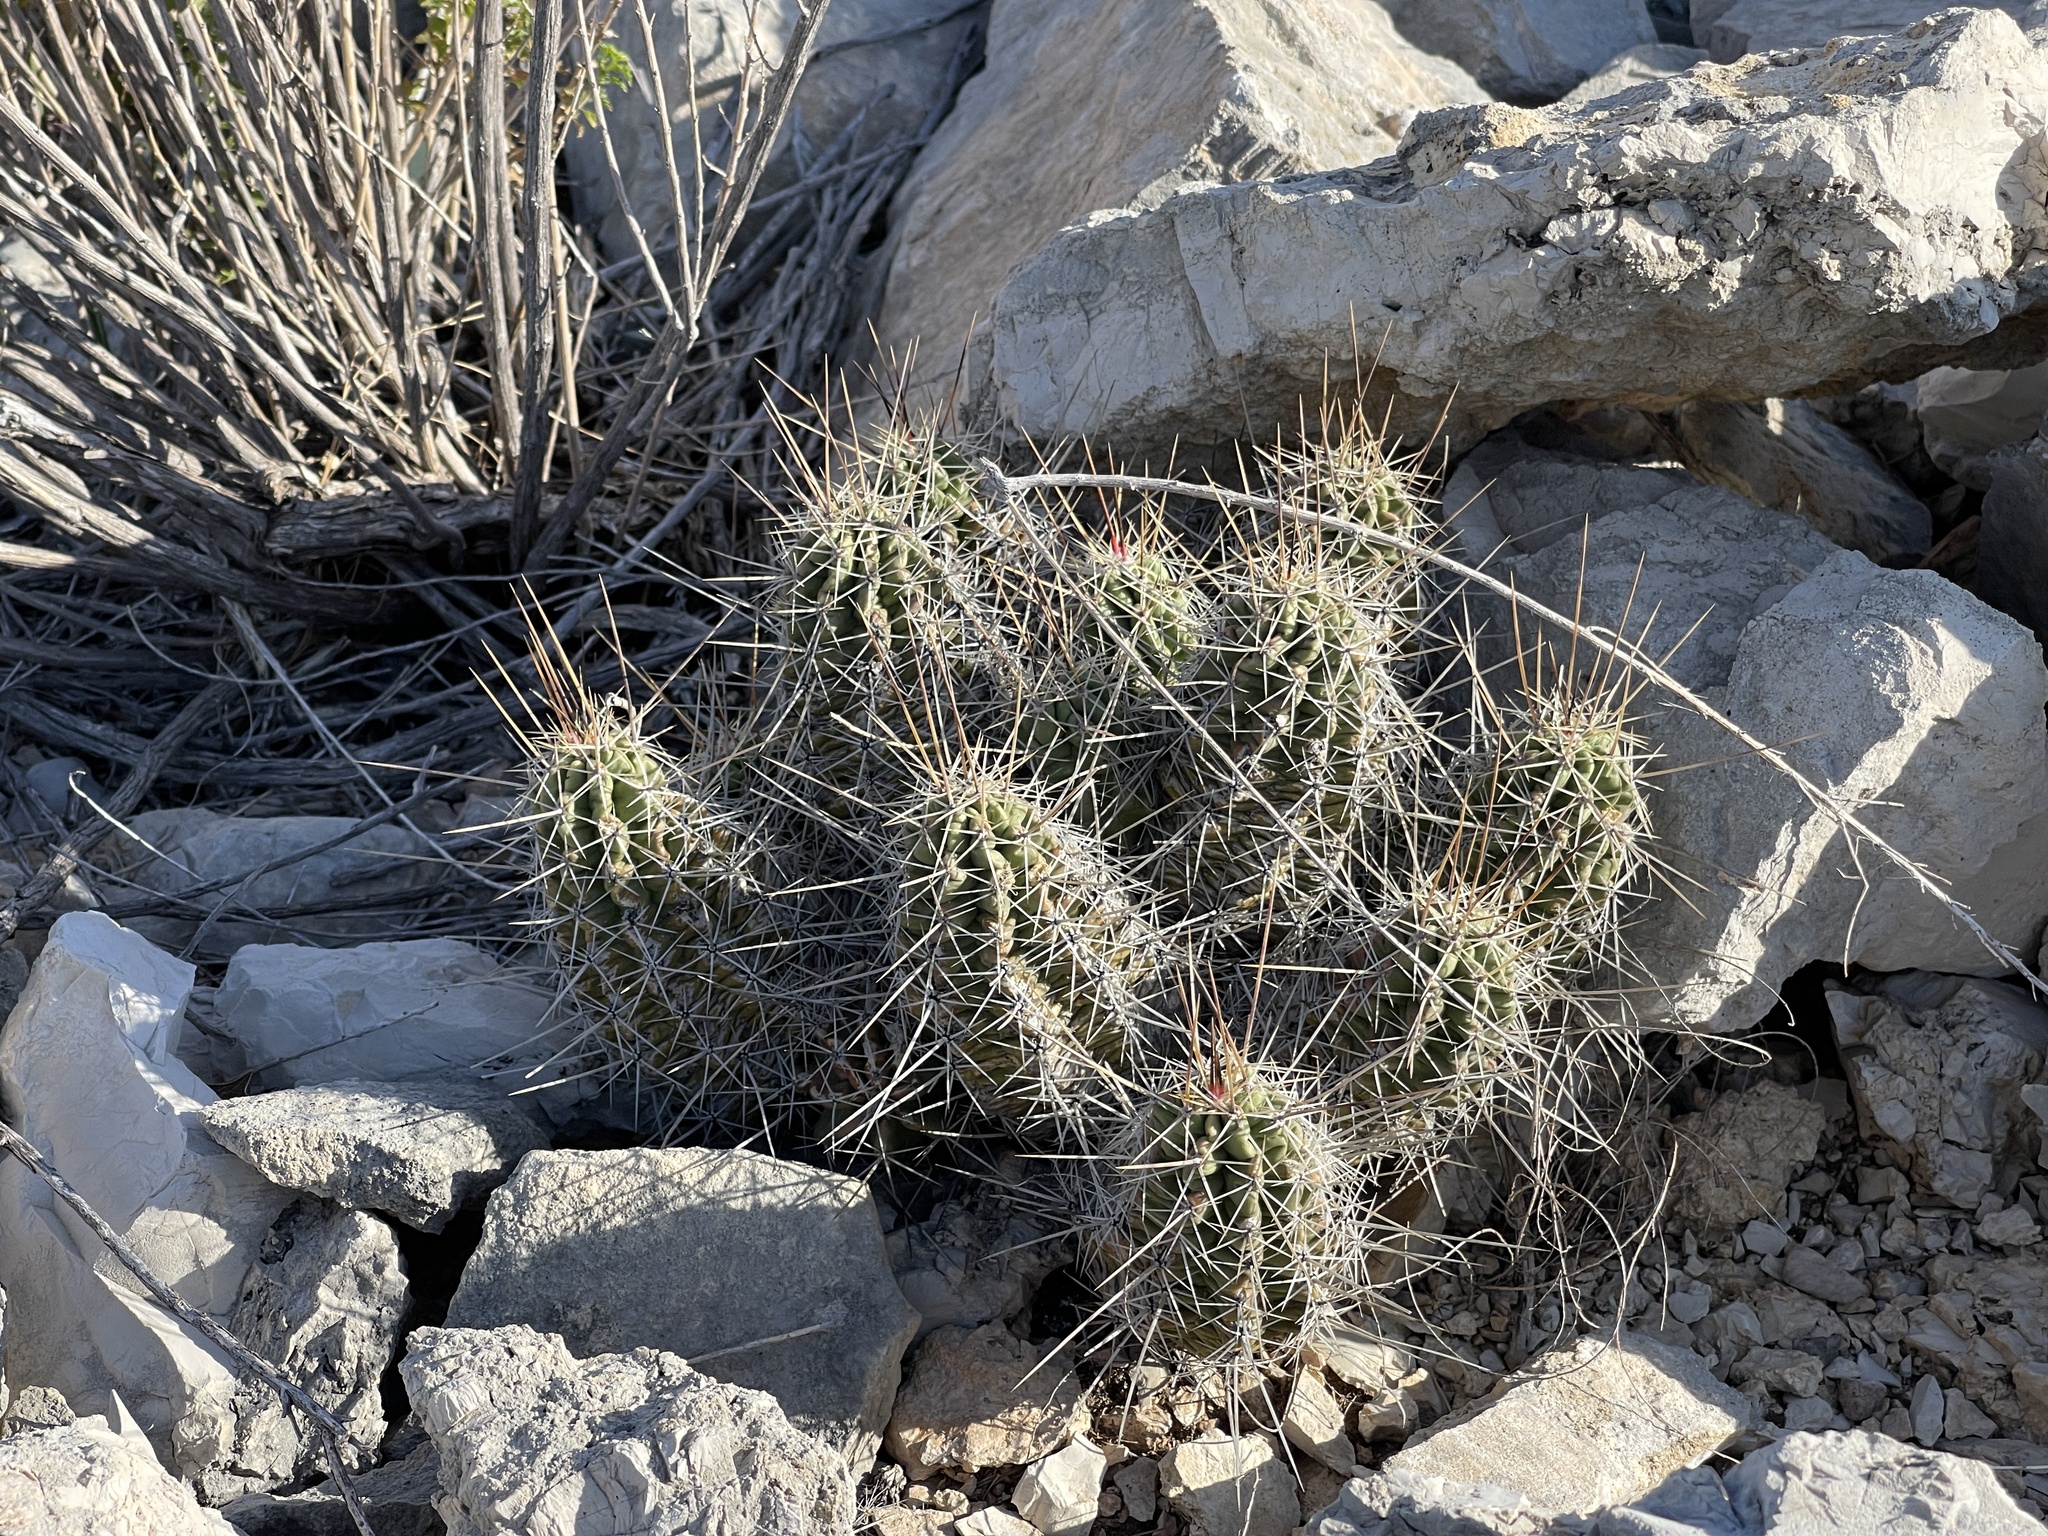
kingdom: Plantae
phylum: Tracheophyta
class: Magnoliopsida
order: Caryophyllales
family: Cactaceae
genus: Echinocereus
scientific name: Echinocereus enneacanthus
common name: Pitaya
